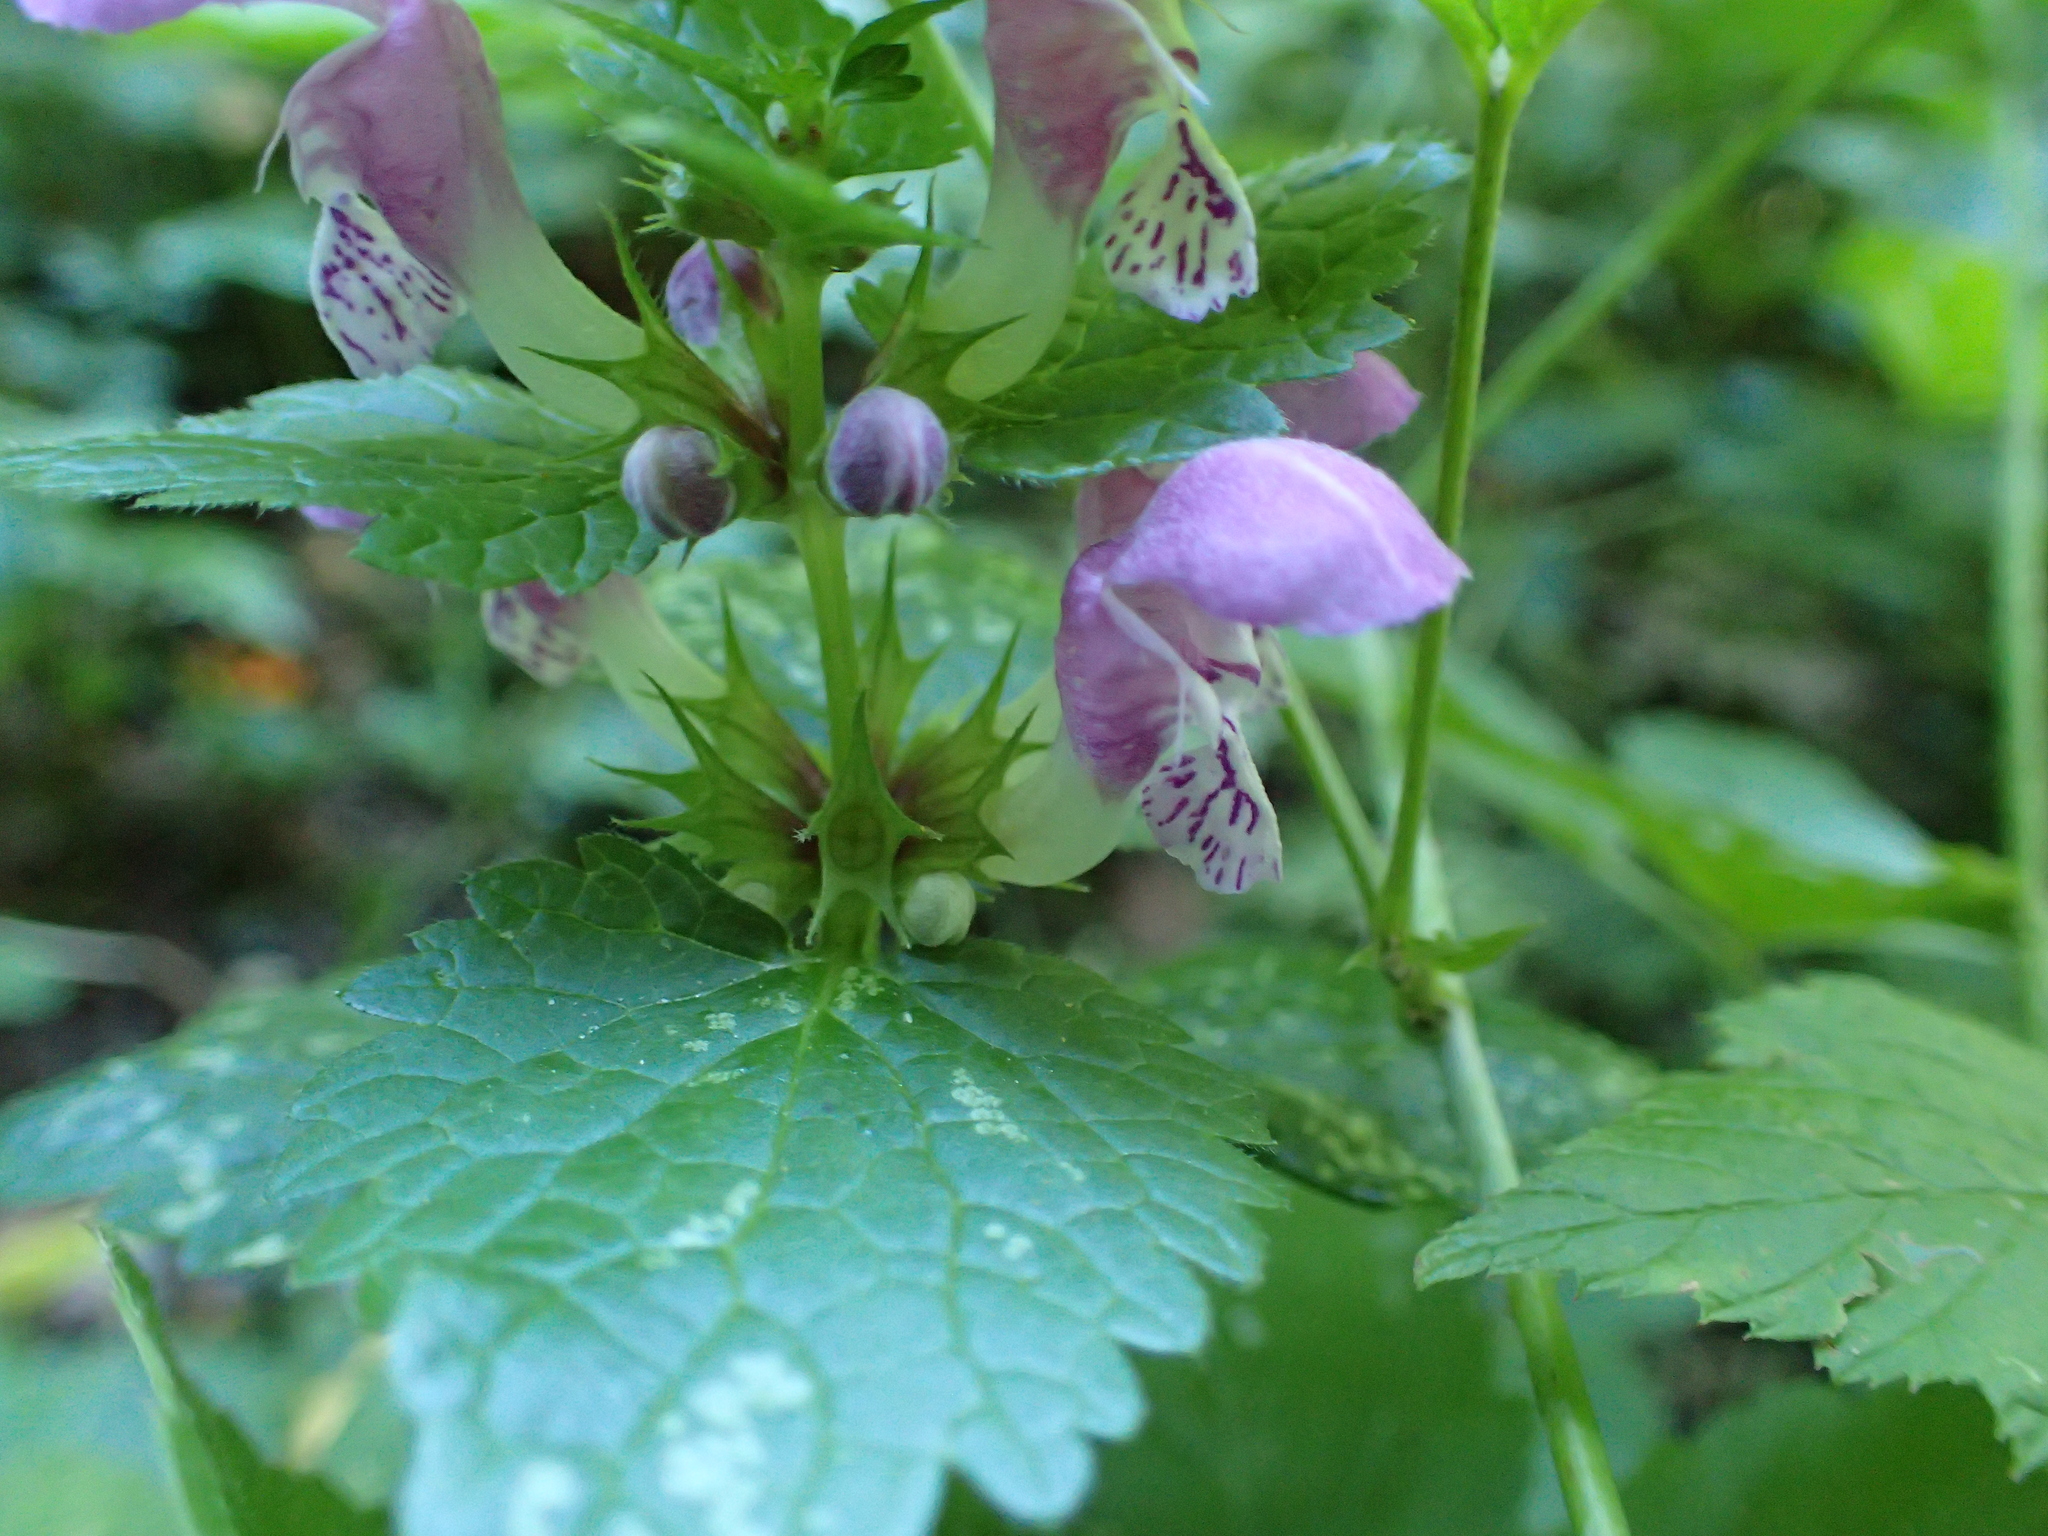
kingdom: Plantae
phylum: Tracheophyta
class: Magnoliopsida
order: Lamiales
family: Lamiaceae
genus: Lamium
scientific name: Lamium maculatum
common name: Spotted dead-nettle
